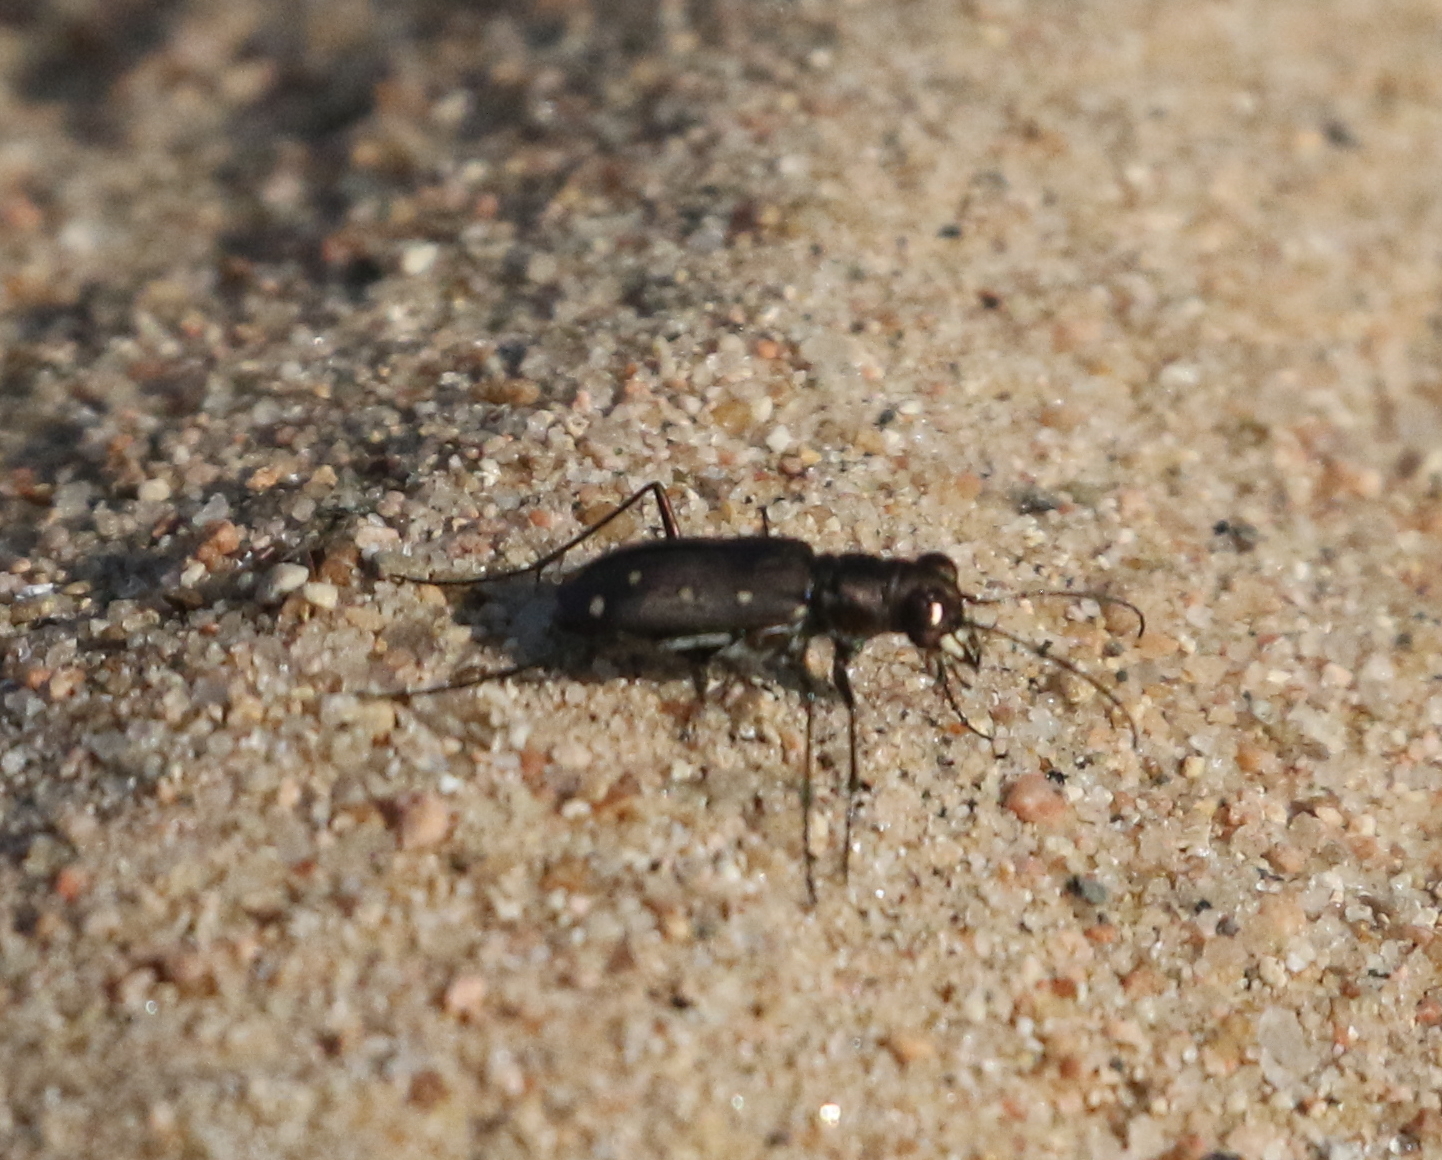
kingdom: Animalia
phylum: Arthropoda
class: Insecta
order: Coleoptera
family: Carabidae
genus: Cicindela
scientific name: Cicindela ocellata
